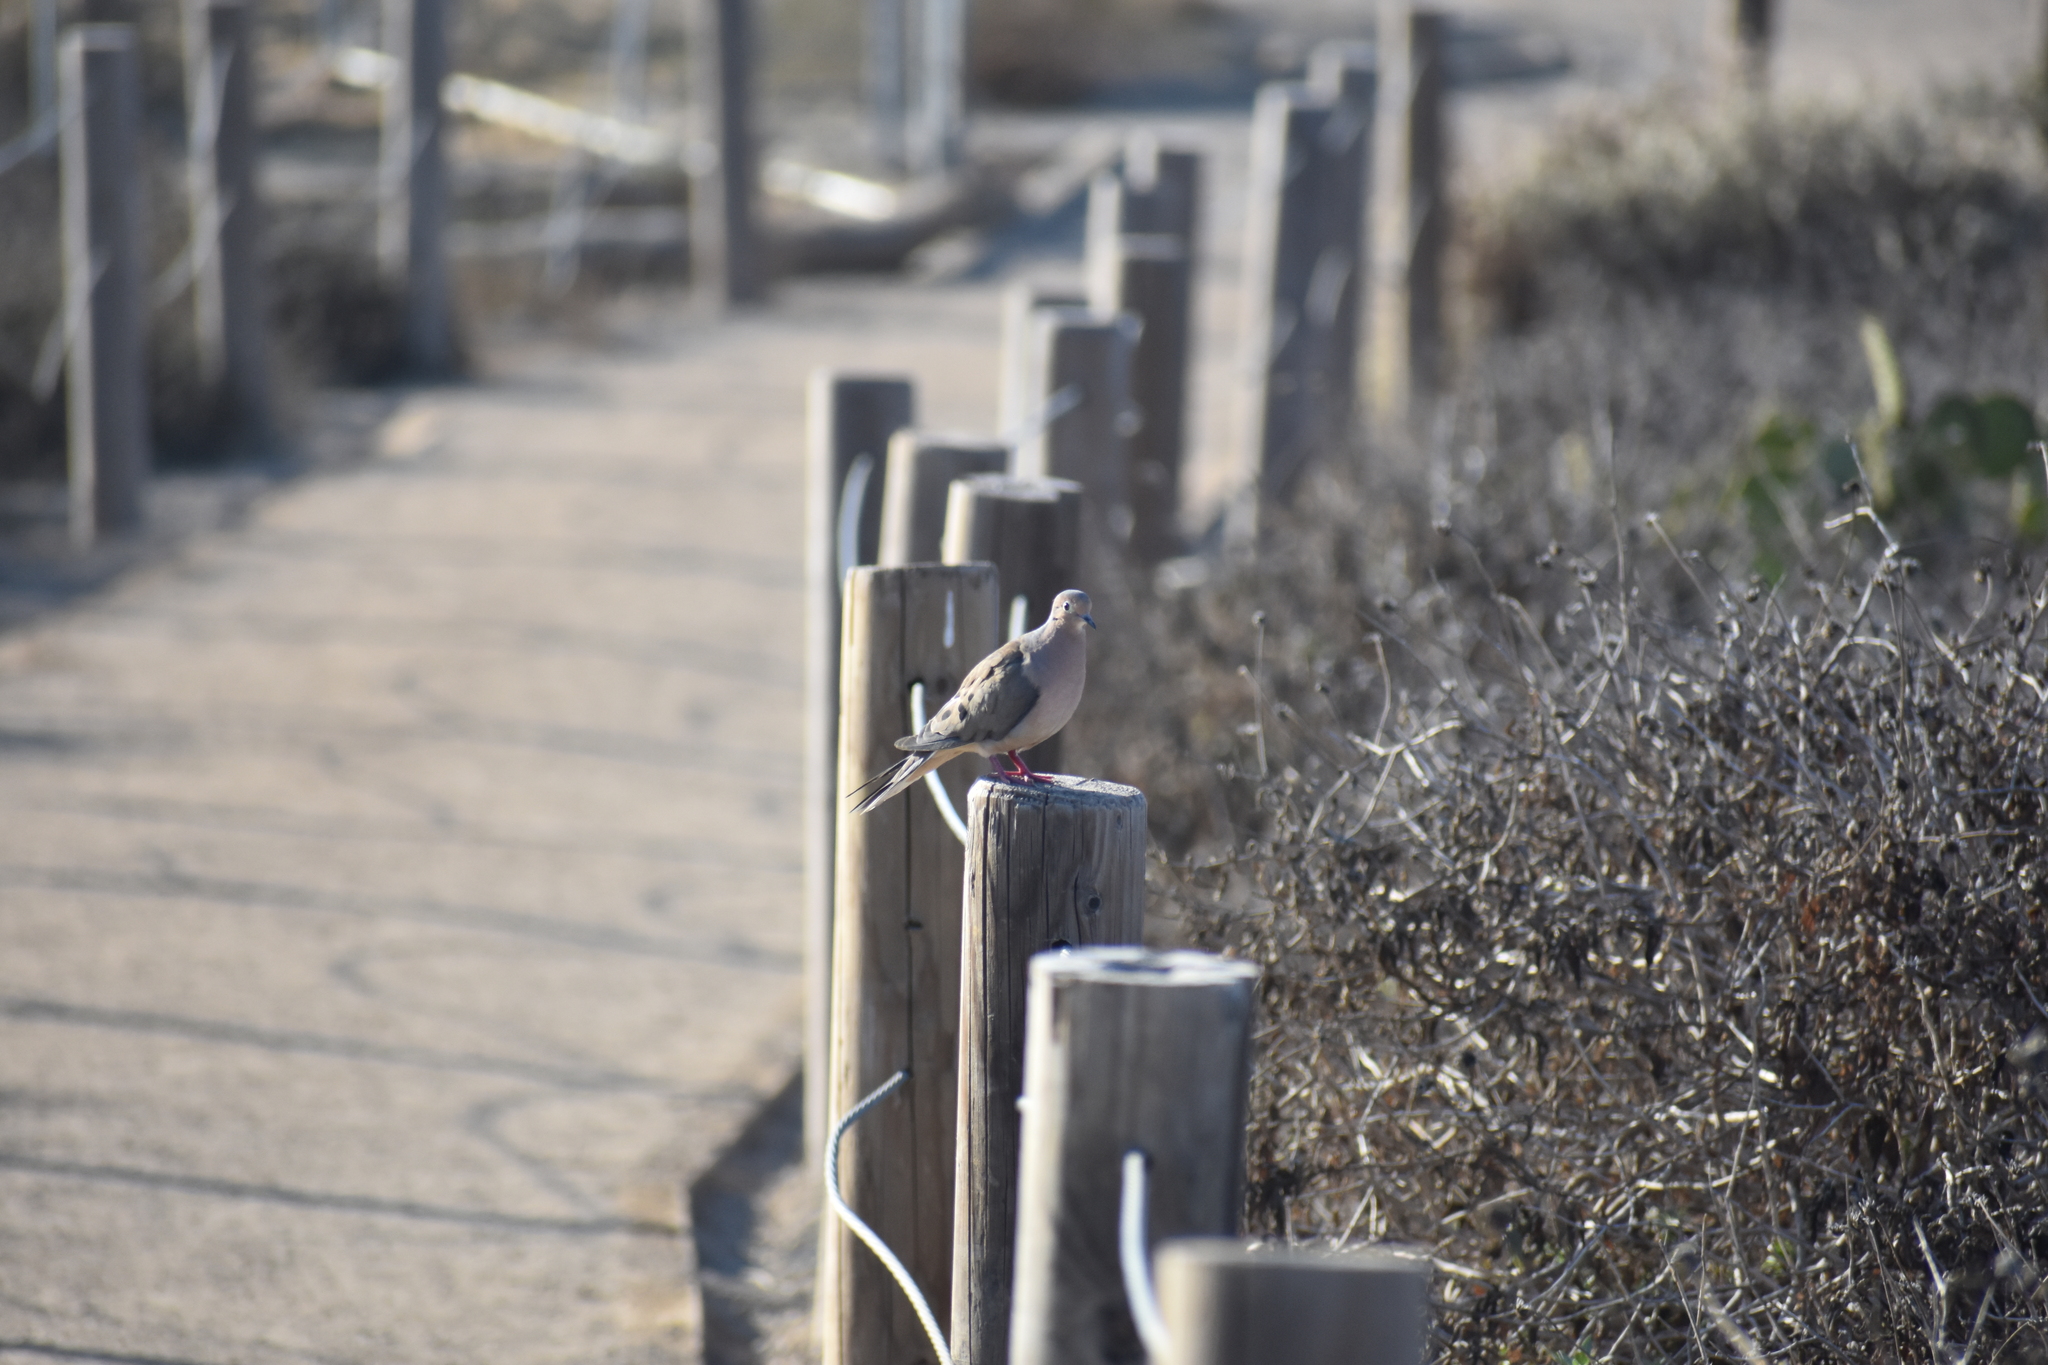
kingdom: Animalia
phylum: Chordata
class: Aves
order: Columbiformes
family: Columbidae
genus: Zenaida
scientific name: Zenaida macroura
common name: Mourning dove
